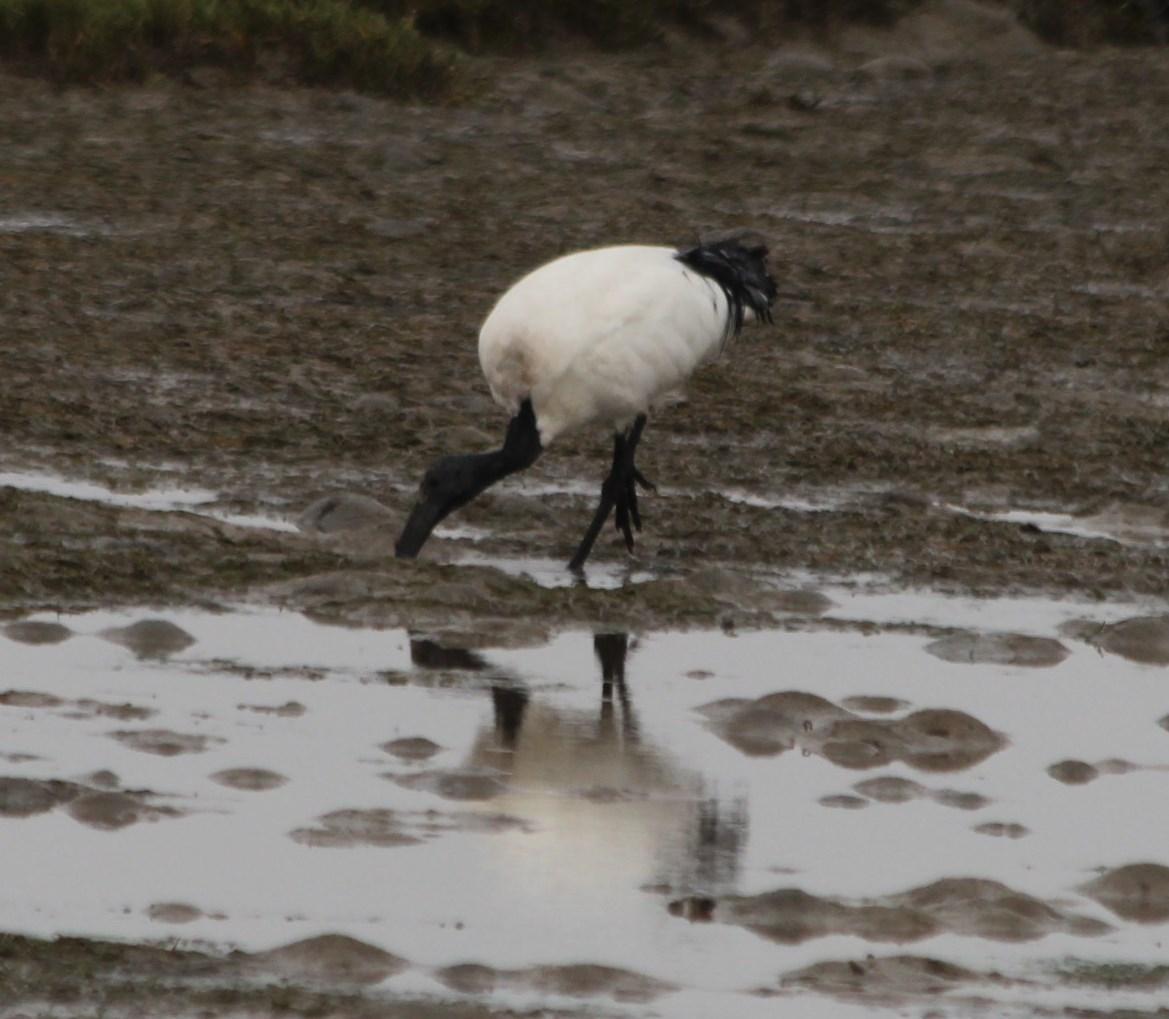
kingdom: Animalia
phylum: Chordata
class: Aves
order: Pelecaniformes
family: Threskiornithidae
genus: Threskiornis
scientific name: Threskiornis aethiopicus
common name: Sacred ibis
